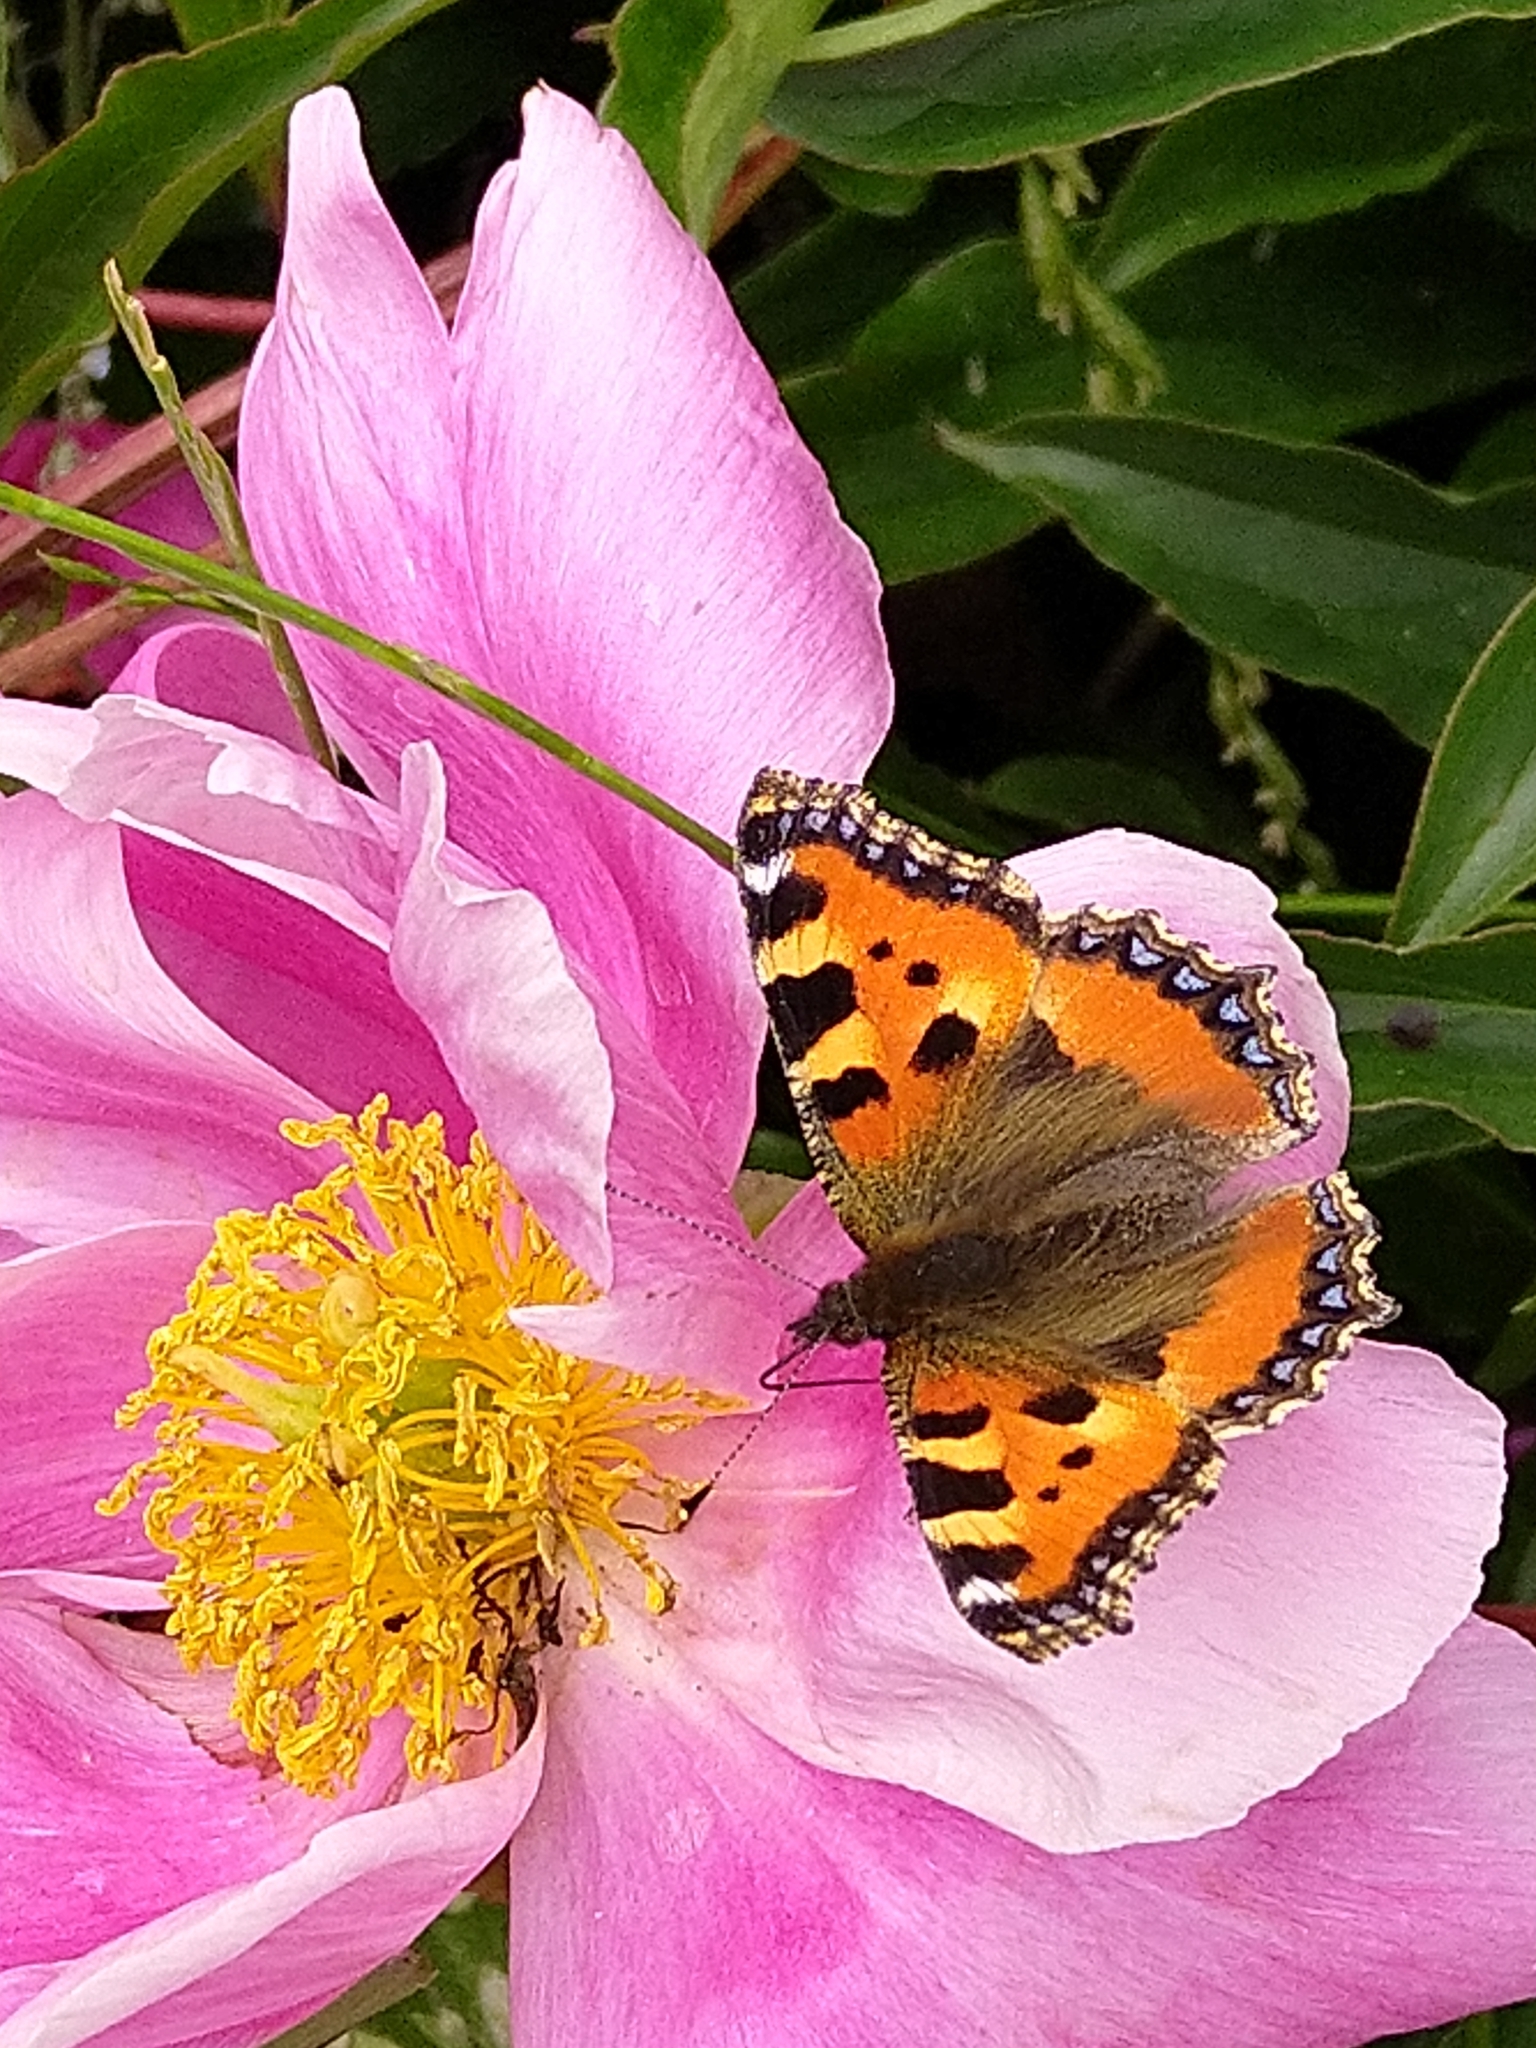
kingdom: Animalia
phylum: Arthropoda
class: Insecta
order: Lepidoptera
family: Nymphalidae
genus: Aglais
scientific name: Aglais urticae
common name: Small tortoiseshell
